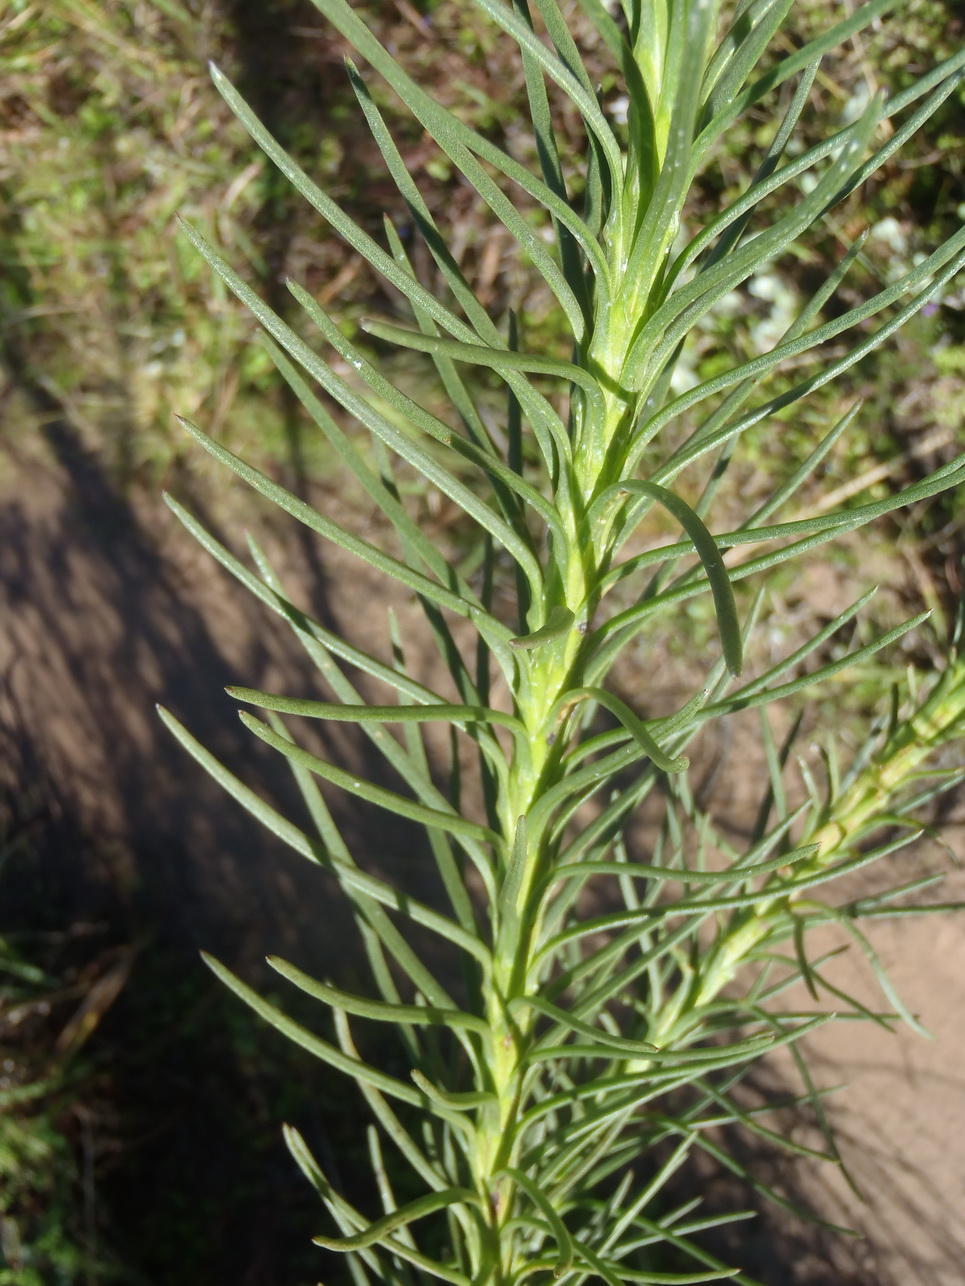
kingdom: Plantae
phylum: Tracheophyta
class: Magnoliopsida
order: Asterales
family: Asteraceae
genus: Athanasia
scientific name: Athanasia linifolia
